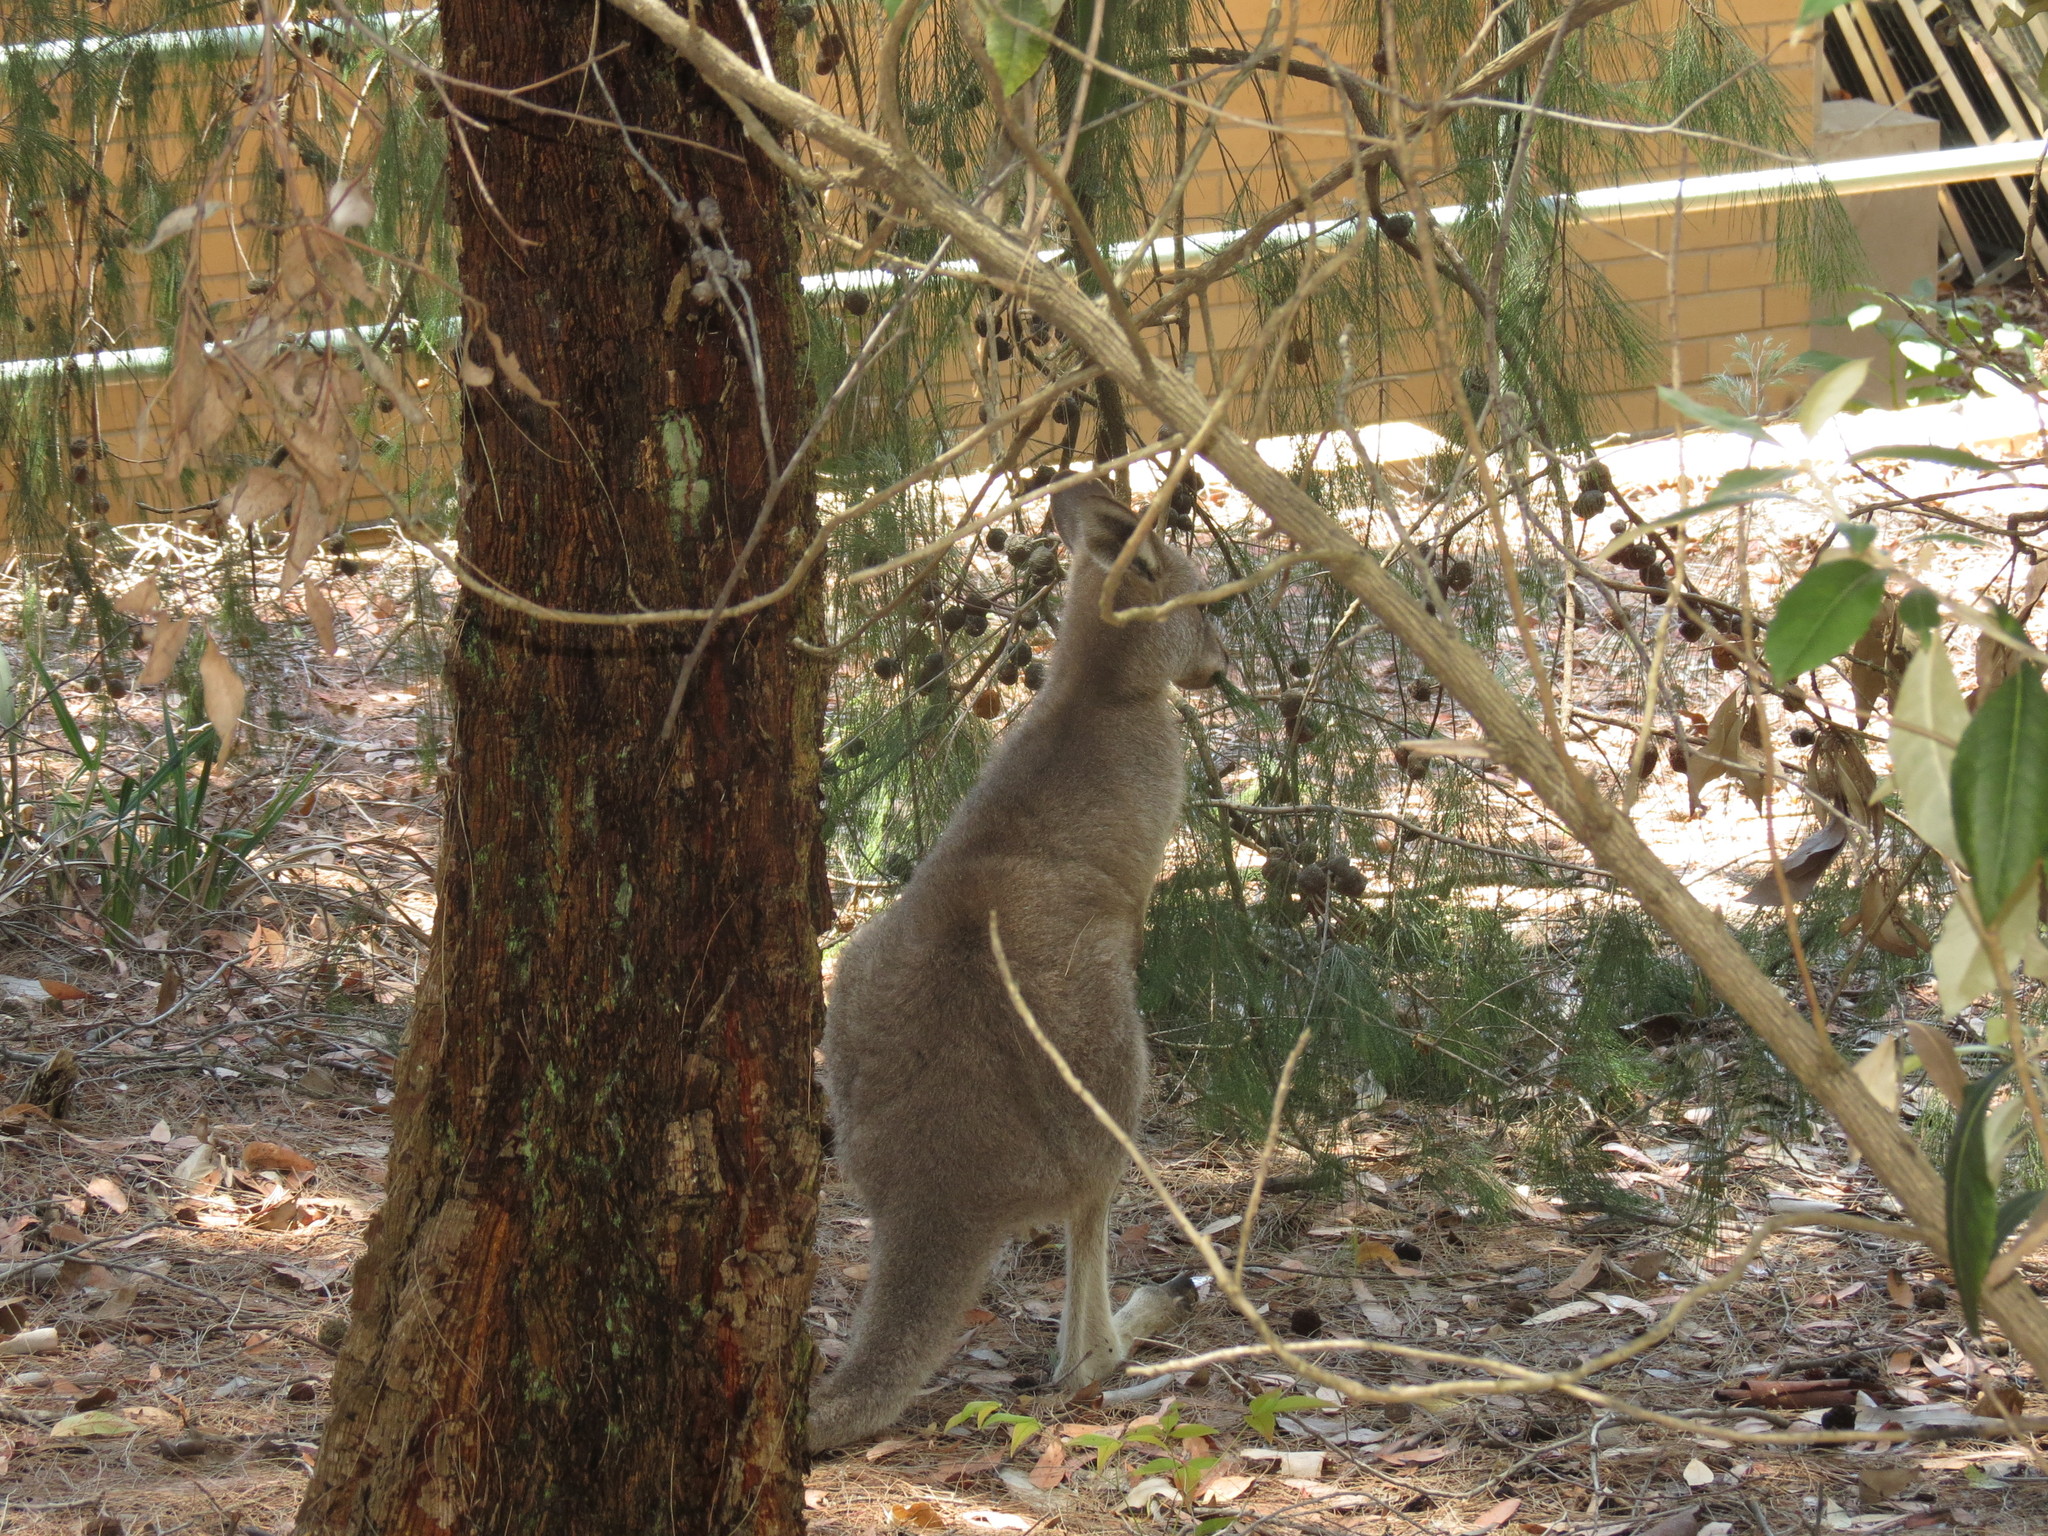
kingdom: Animalia
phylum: Chordata
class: Mammalia
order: Diprotodontia
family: Macropodidae
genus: Macropus
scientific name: Macropus giganteus
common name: Eastern grey kangaroo
